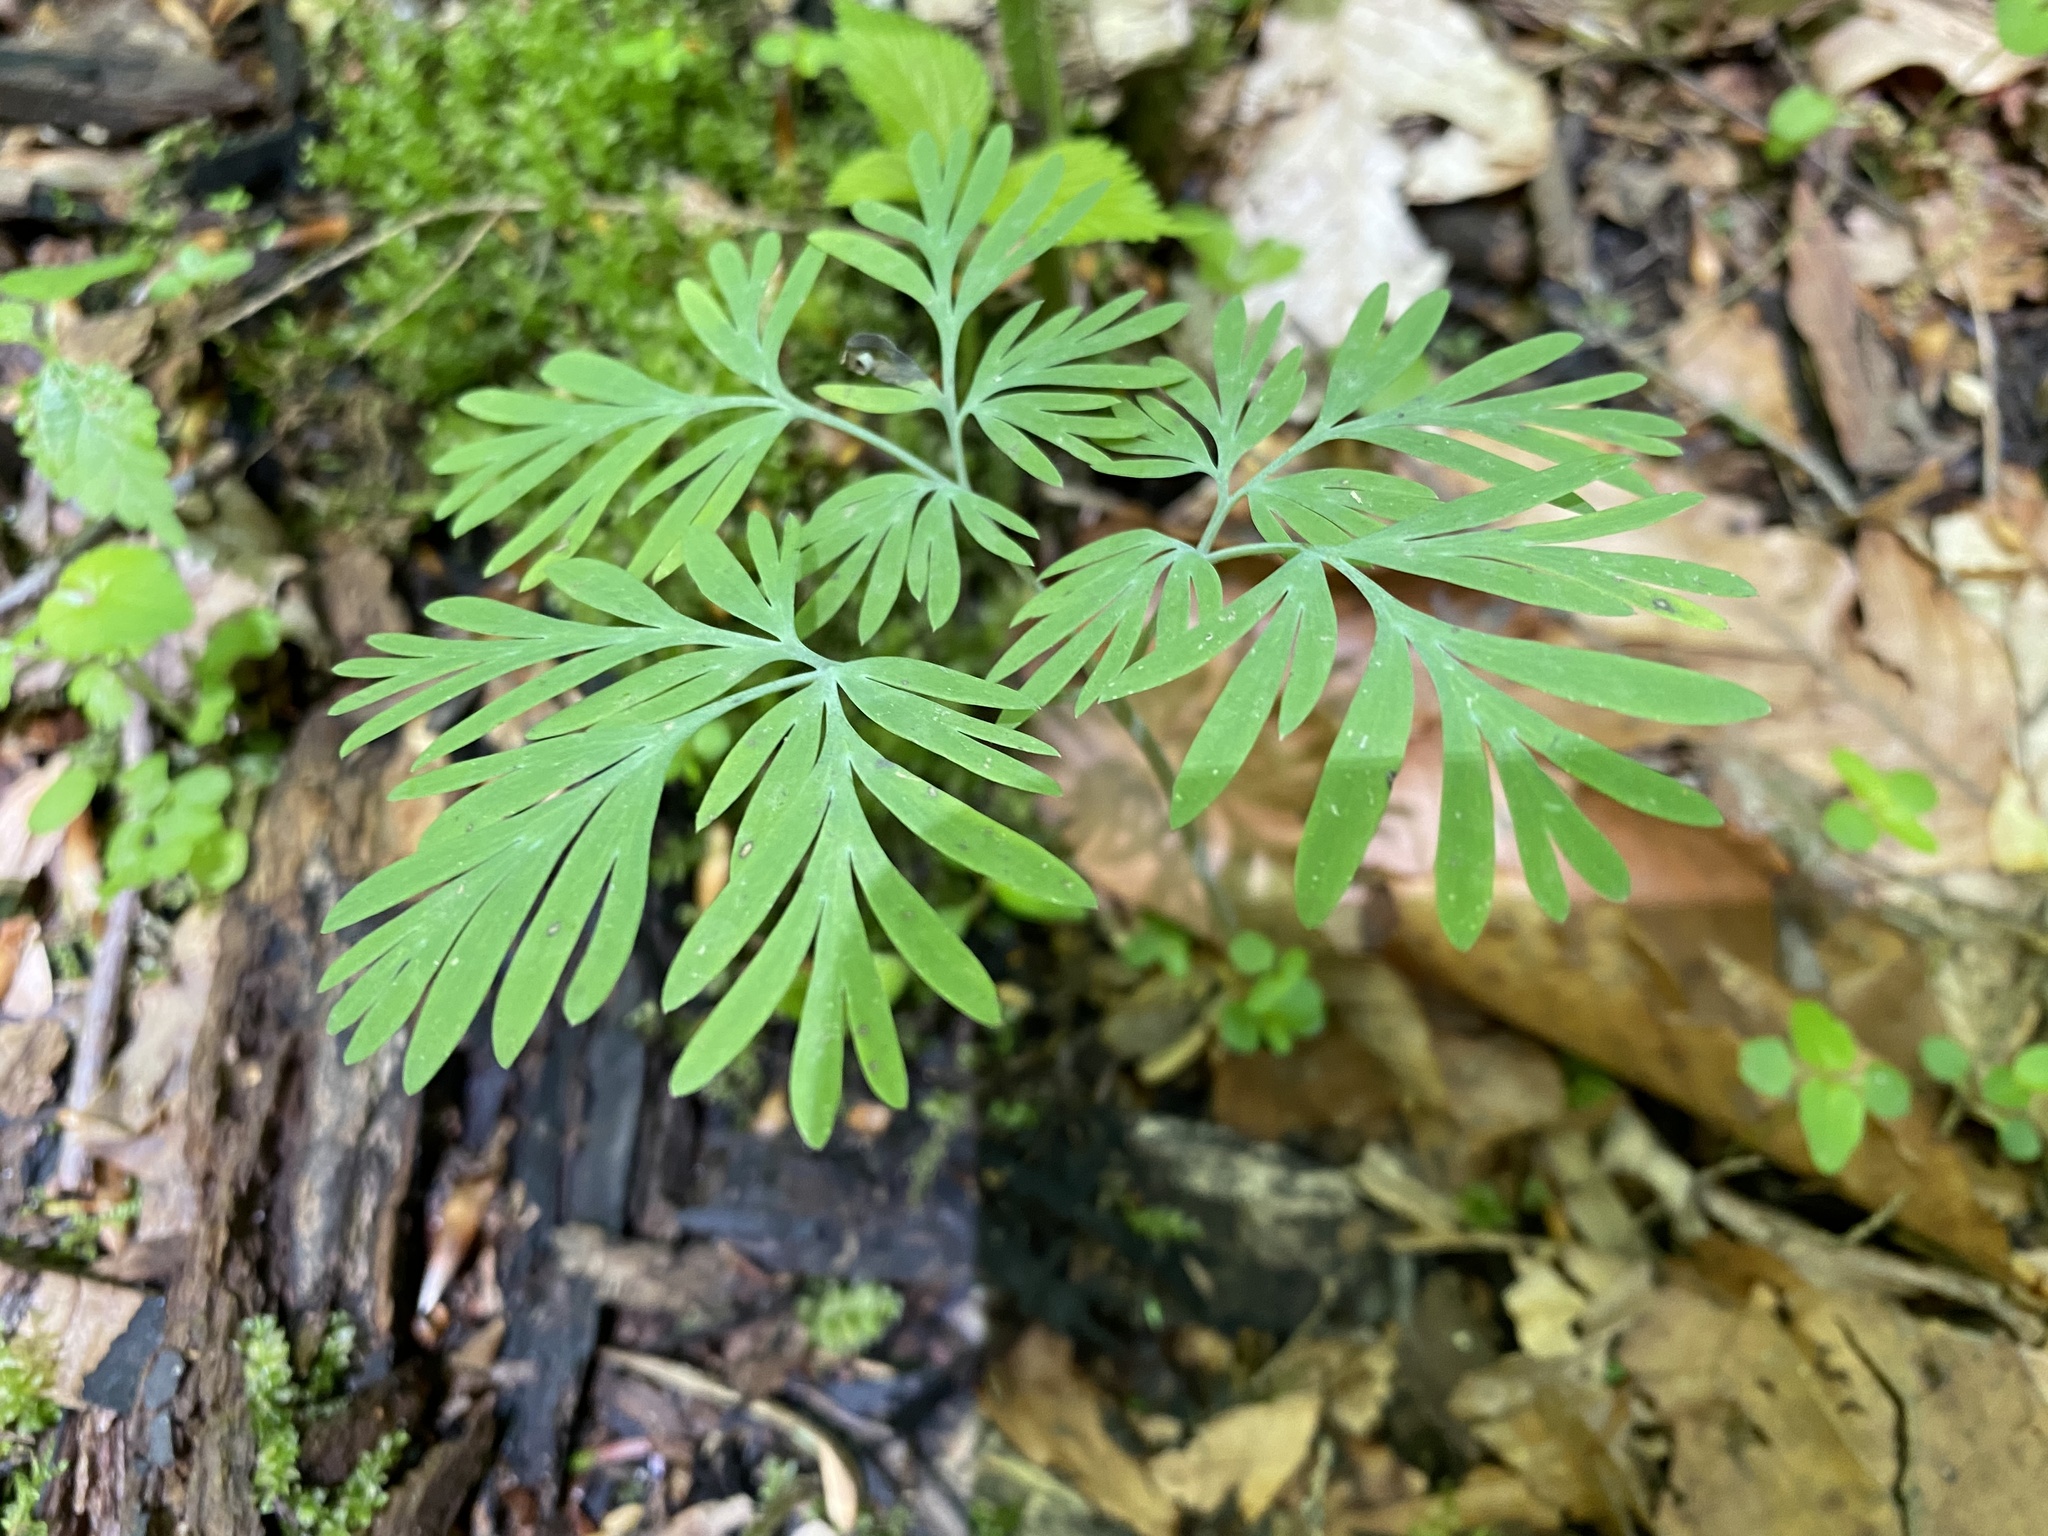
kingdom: Plantae
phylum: Tracheophyta
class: Magnoliopsida
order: Ranunculales
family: Papaveraceae
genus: Dicentra
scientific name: Dicentra
